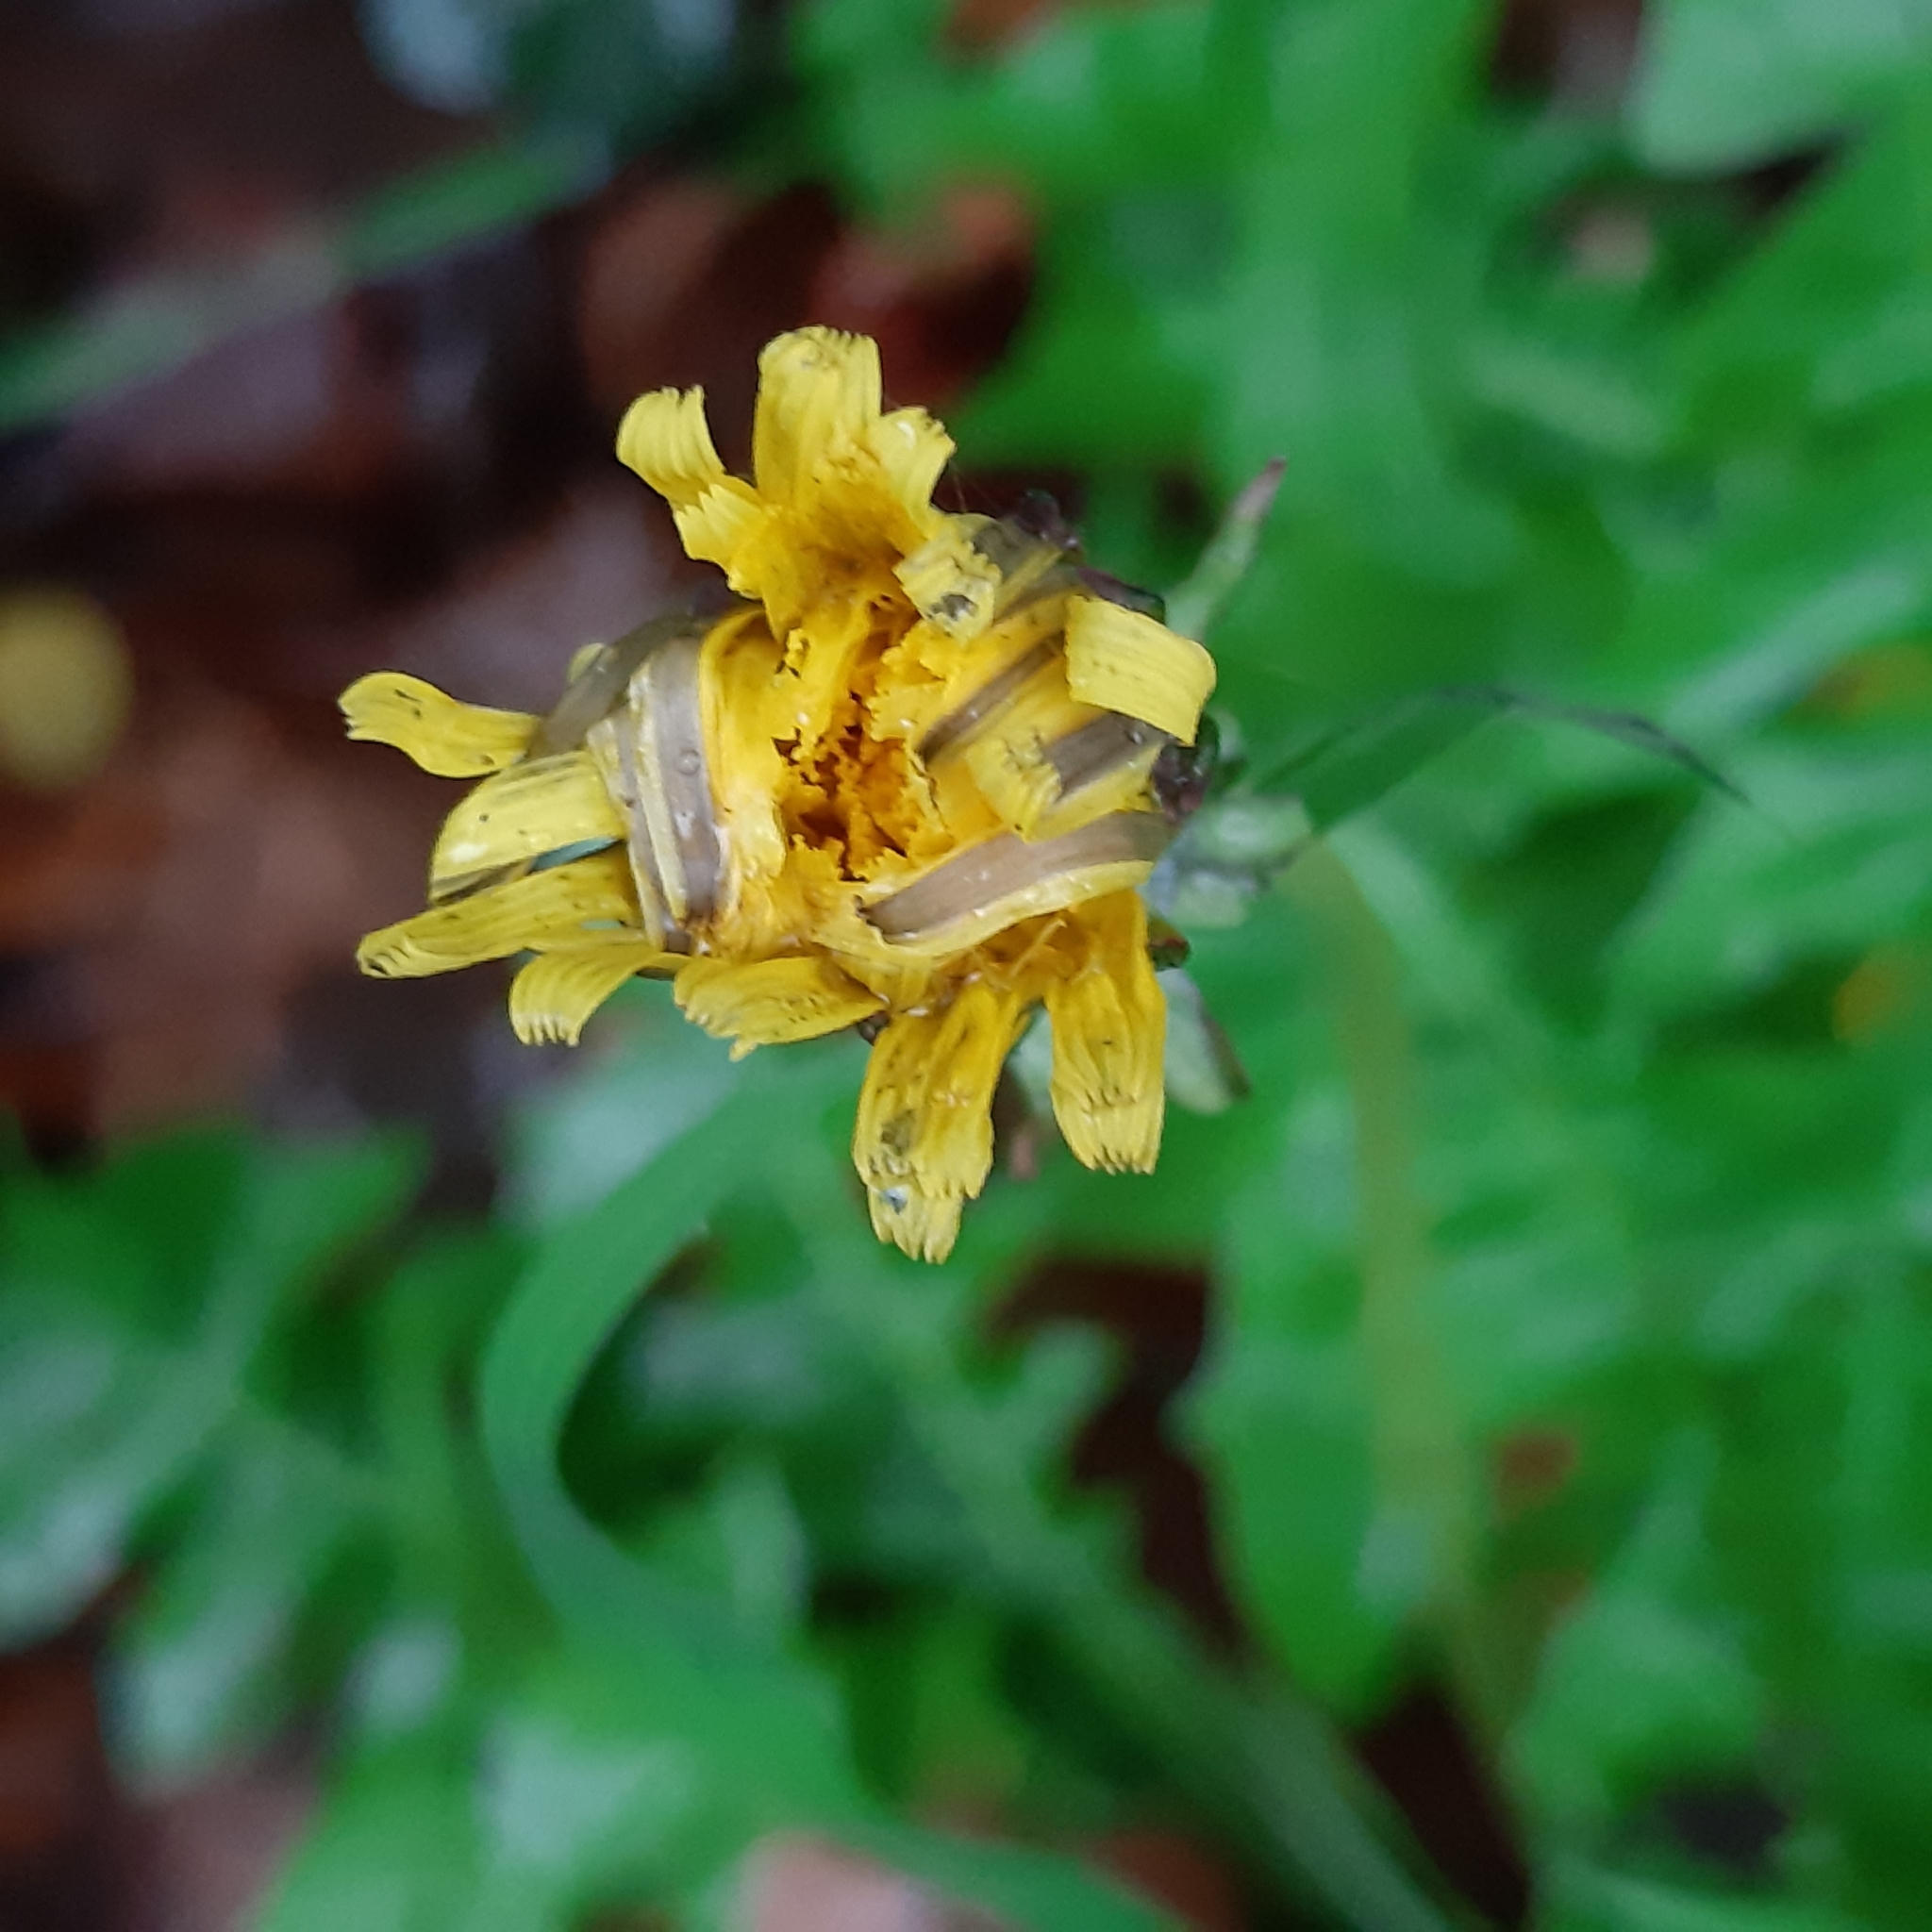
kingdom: Plantae
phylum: Tracheophyta
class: Magnoliopsida
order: Asterales
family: Asteraceae
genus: Taraxacum
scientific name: Taraxacum officinale
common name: Common dandelion
